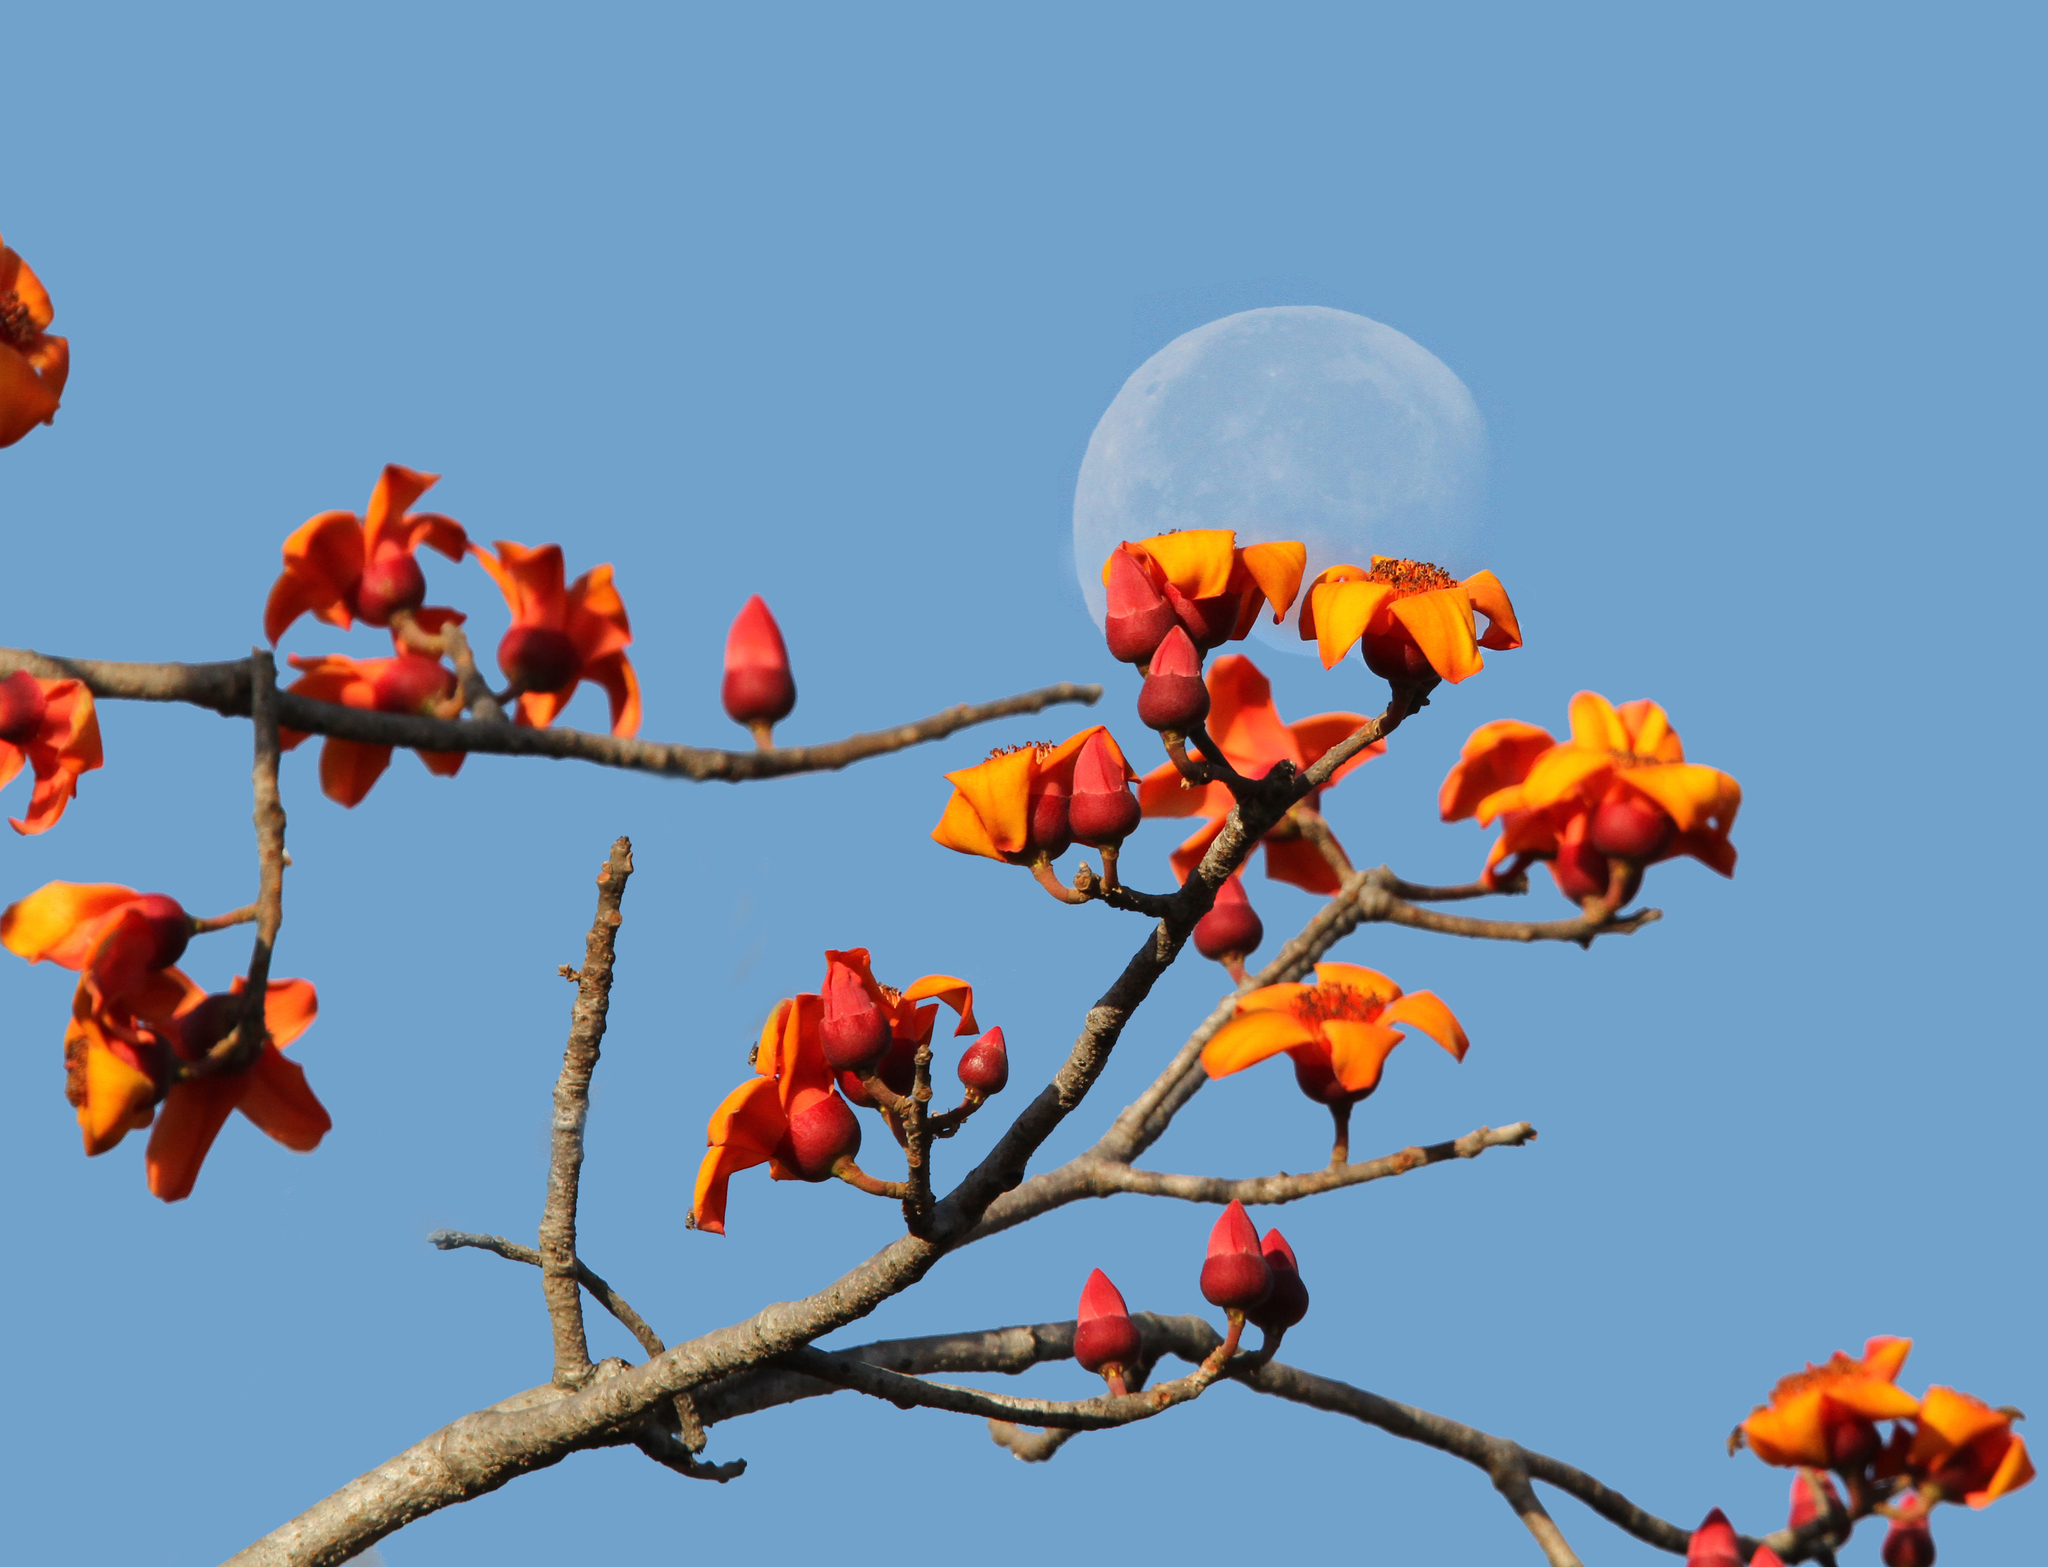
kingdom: Plantae
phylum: Tracheophyta
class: Magnoliopsida
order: Malvales
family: Malvaceae
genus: Bombax
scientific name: Bombax costatum
